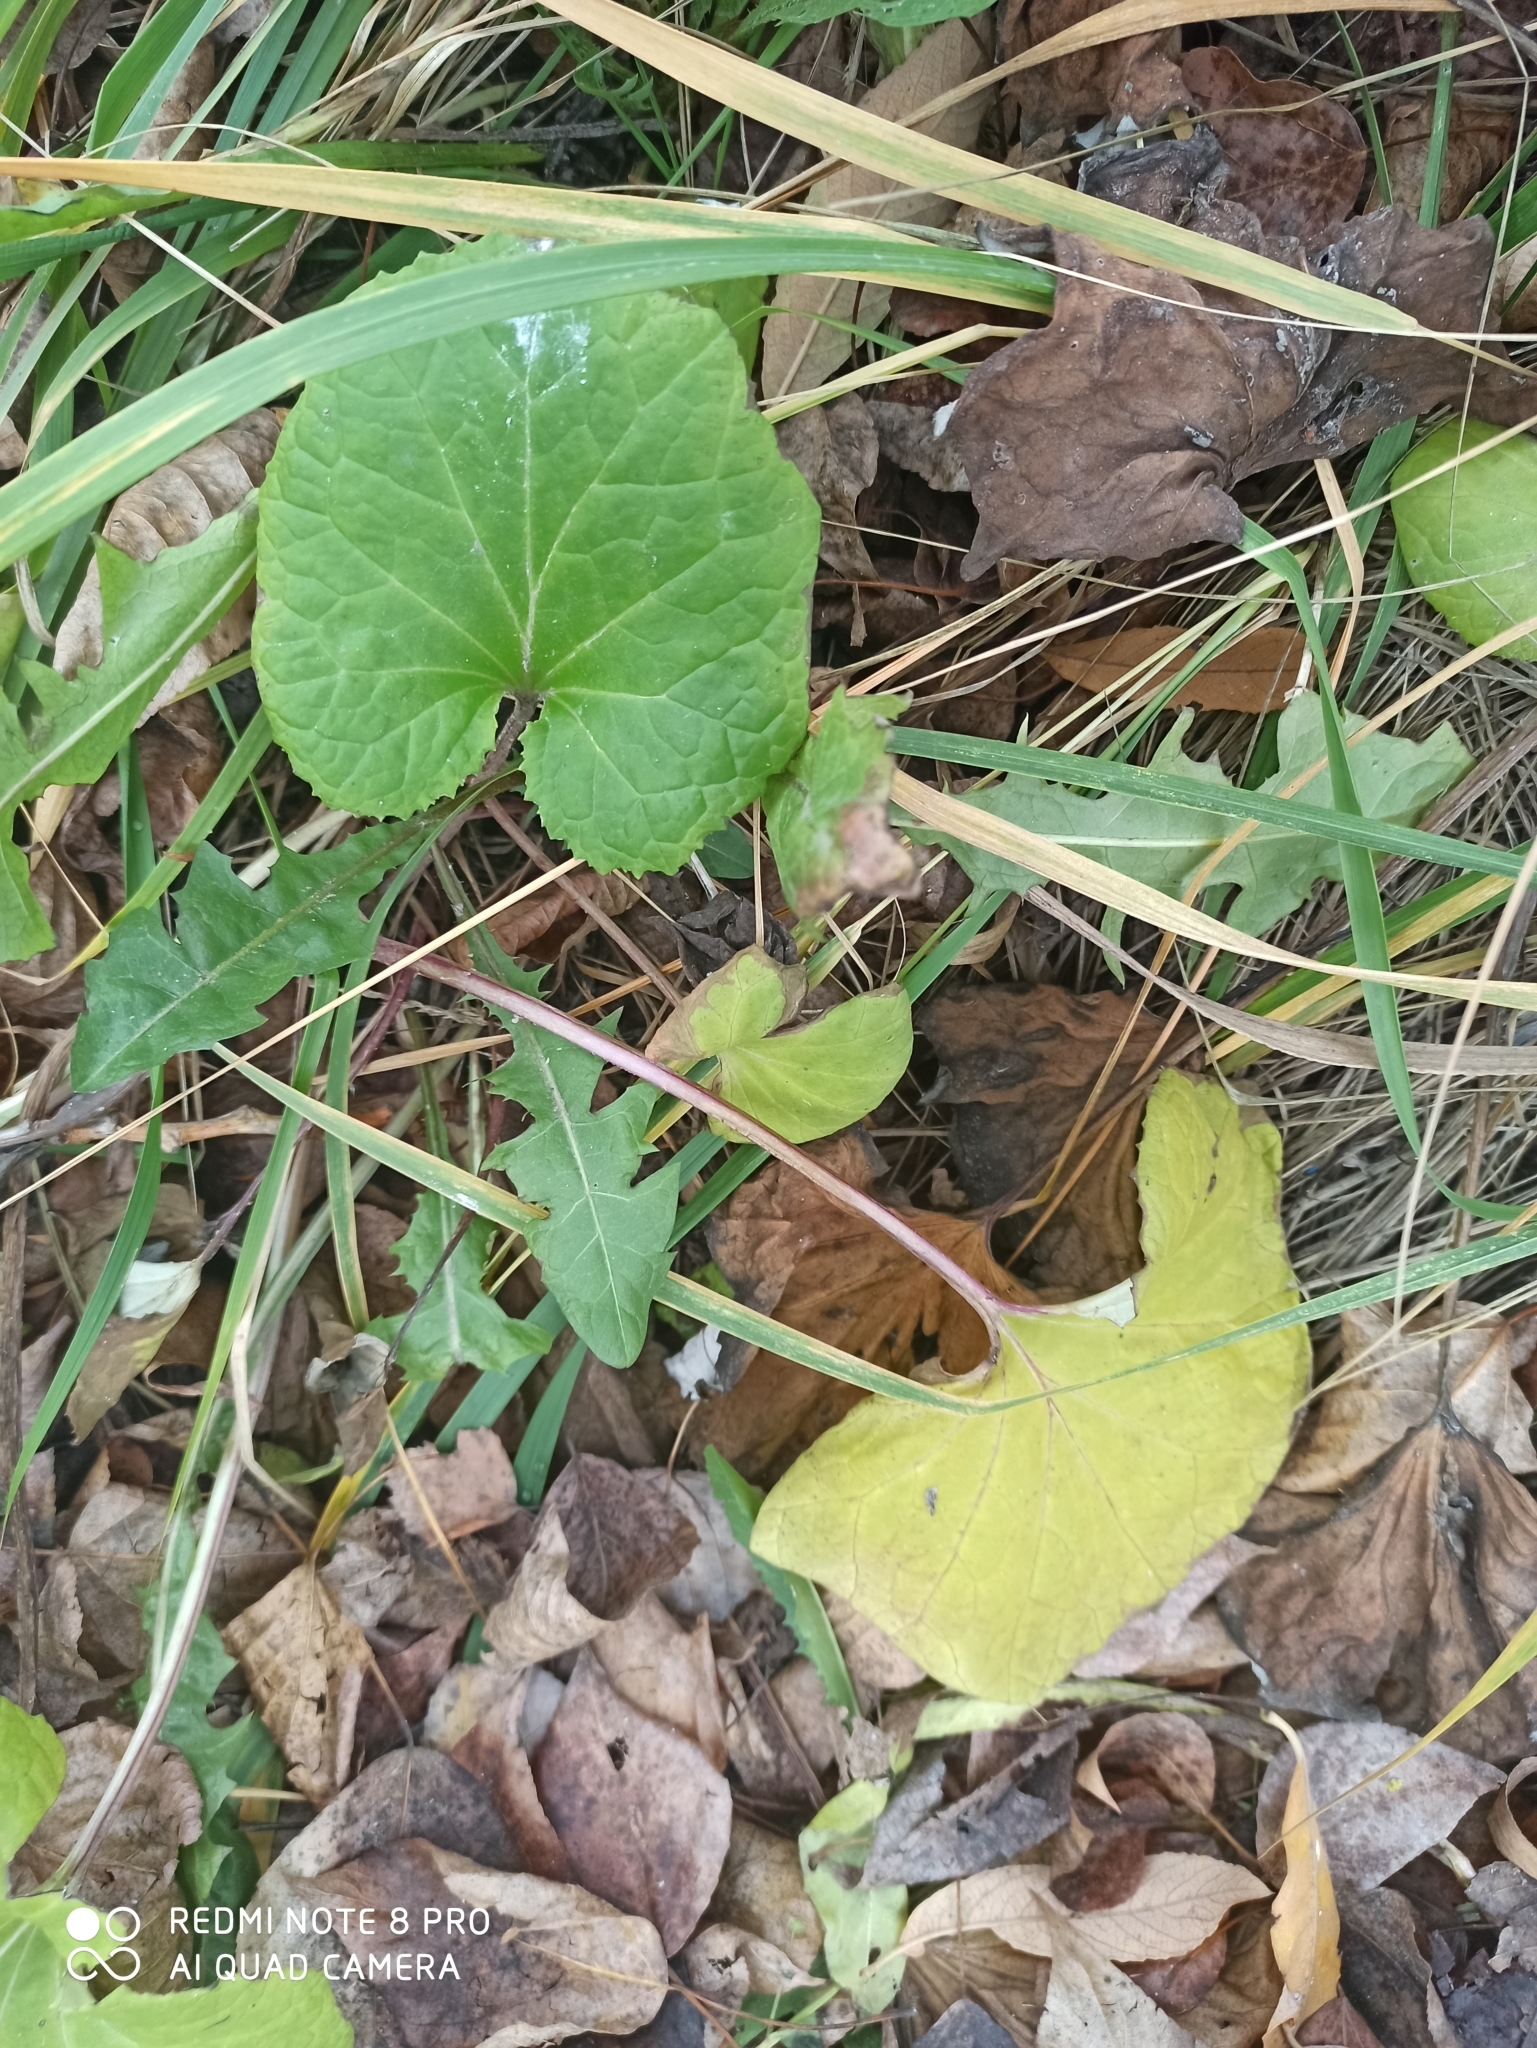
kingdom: Plantae
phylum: Tracheophyta
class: Magnoliopsida
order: Asterales
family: Asteraceae
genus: Tussilago
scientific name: Tussilago farfara
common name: Coltsfoot
